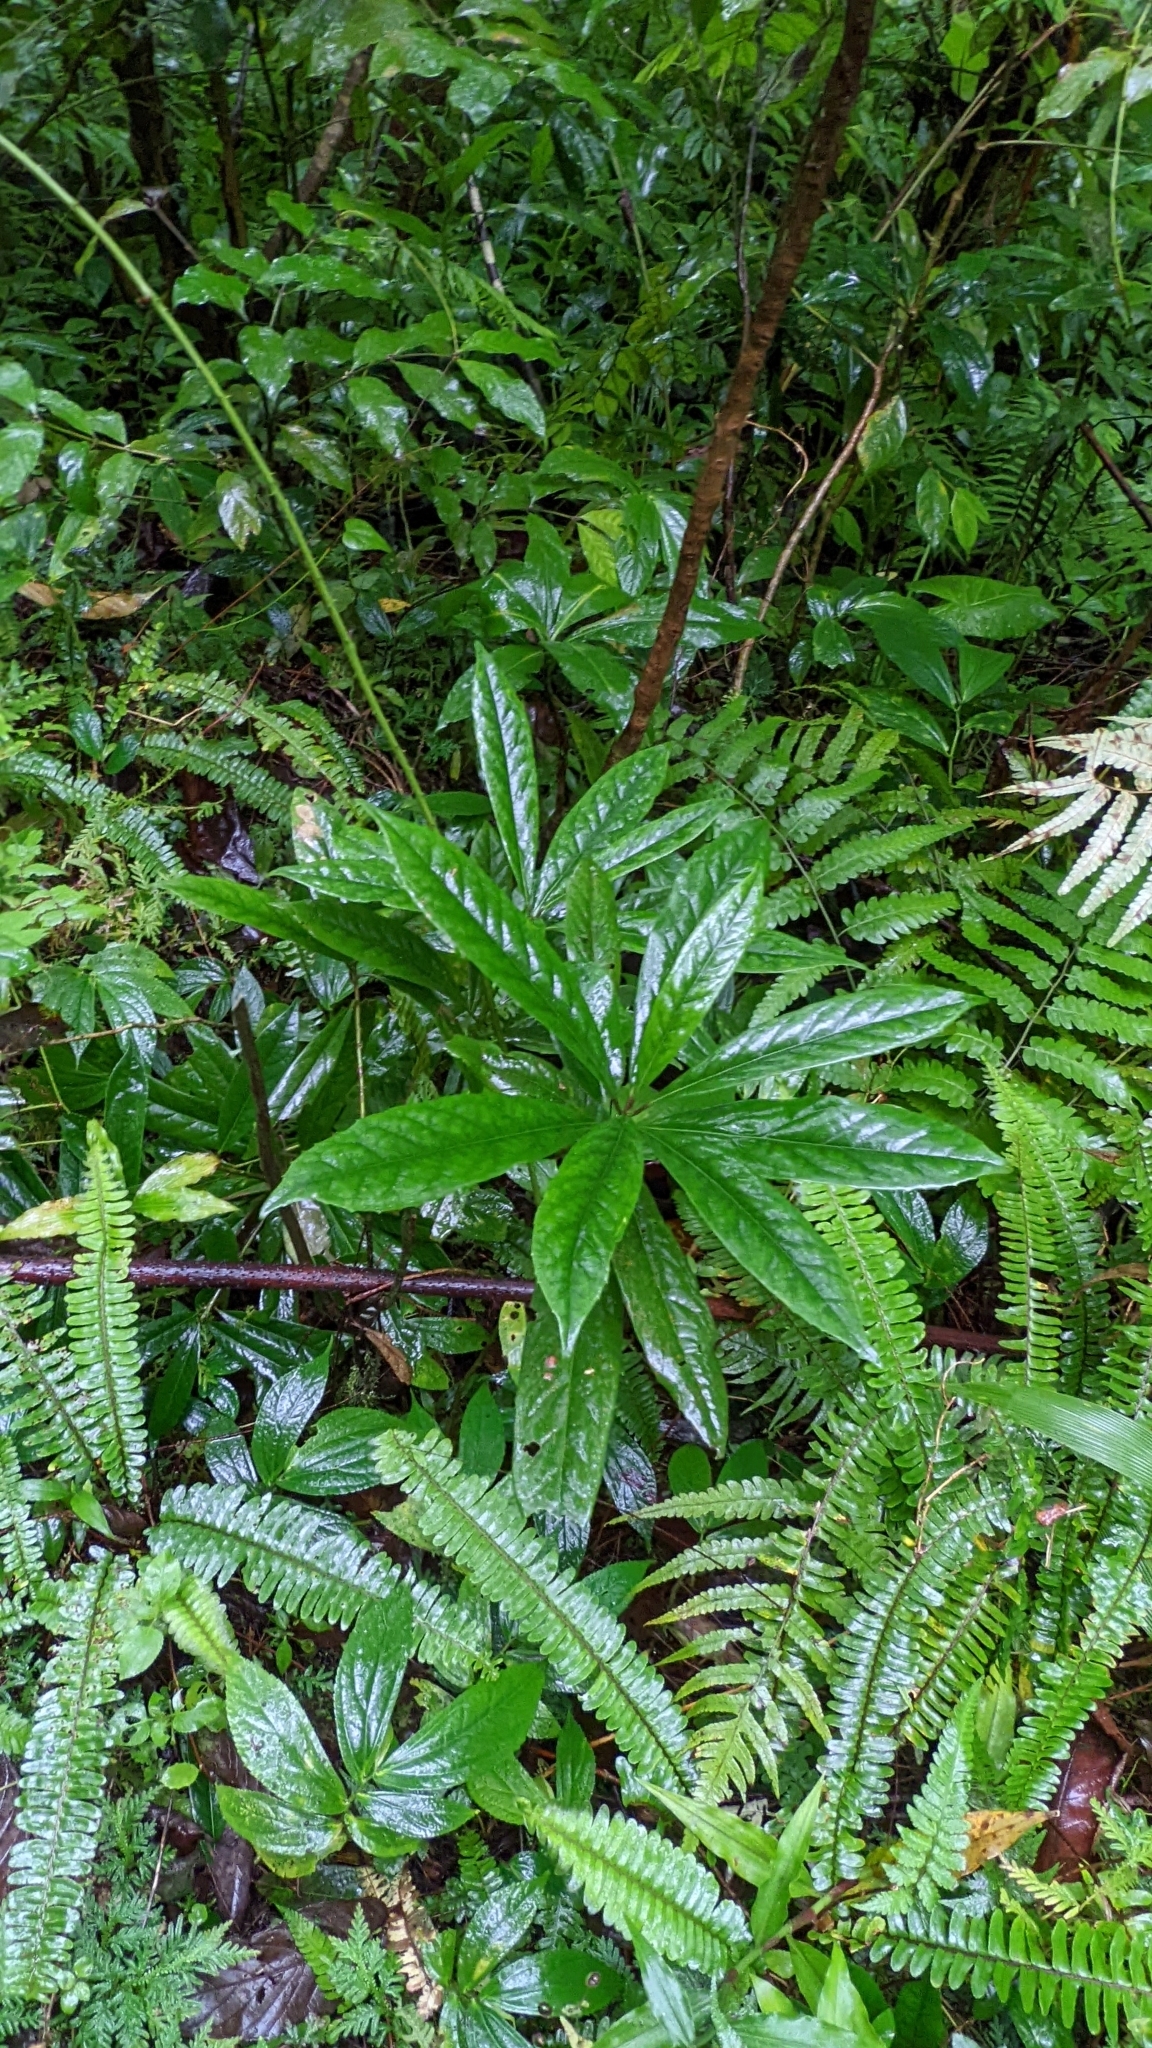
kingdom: Plantae
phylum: Tracheophyta
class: Magnoliopsida
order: Ericales
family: Symplocaceae
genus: Symplocos
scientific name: Symplocos glauca
